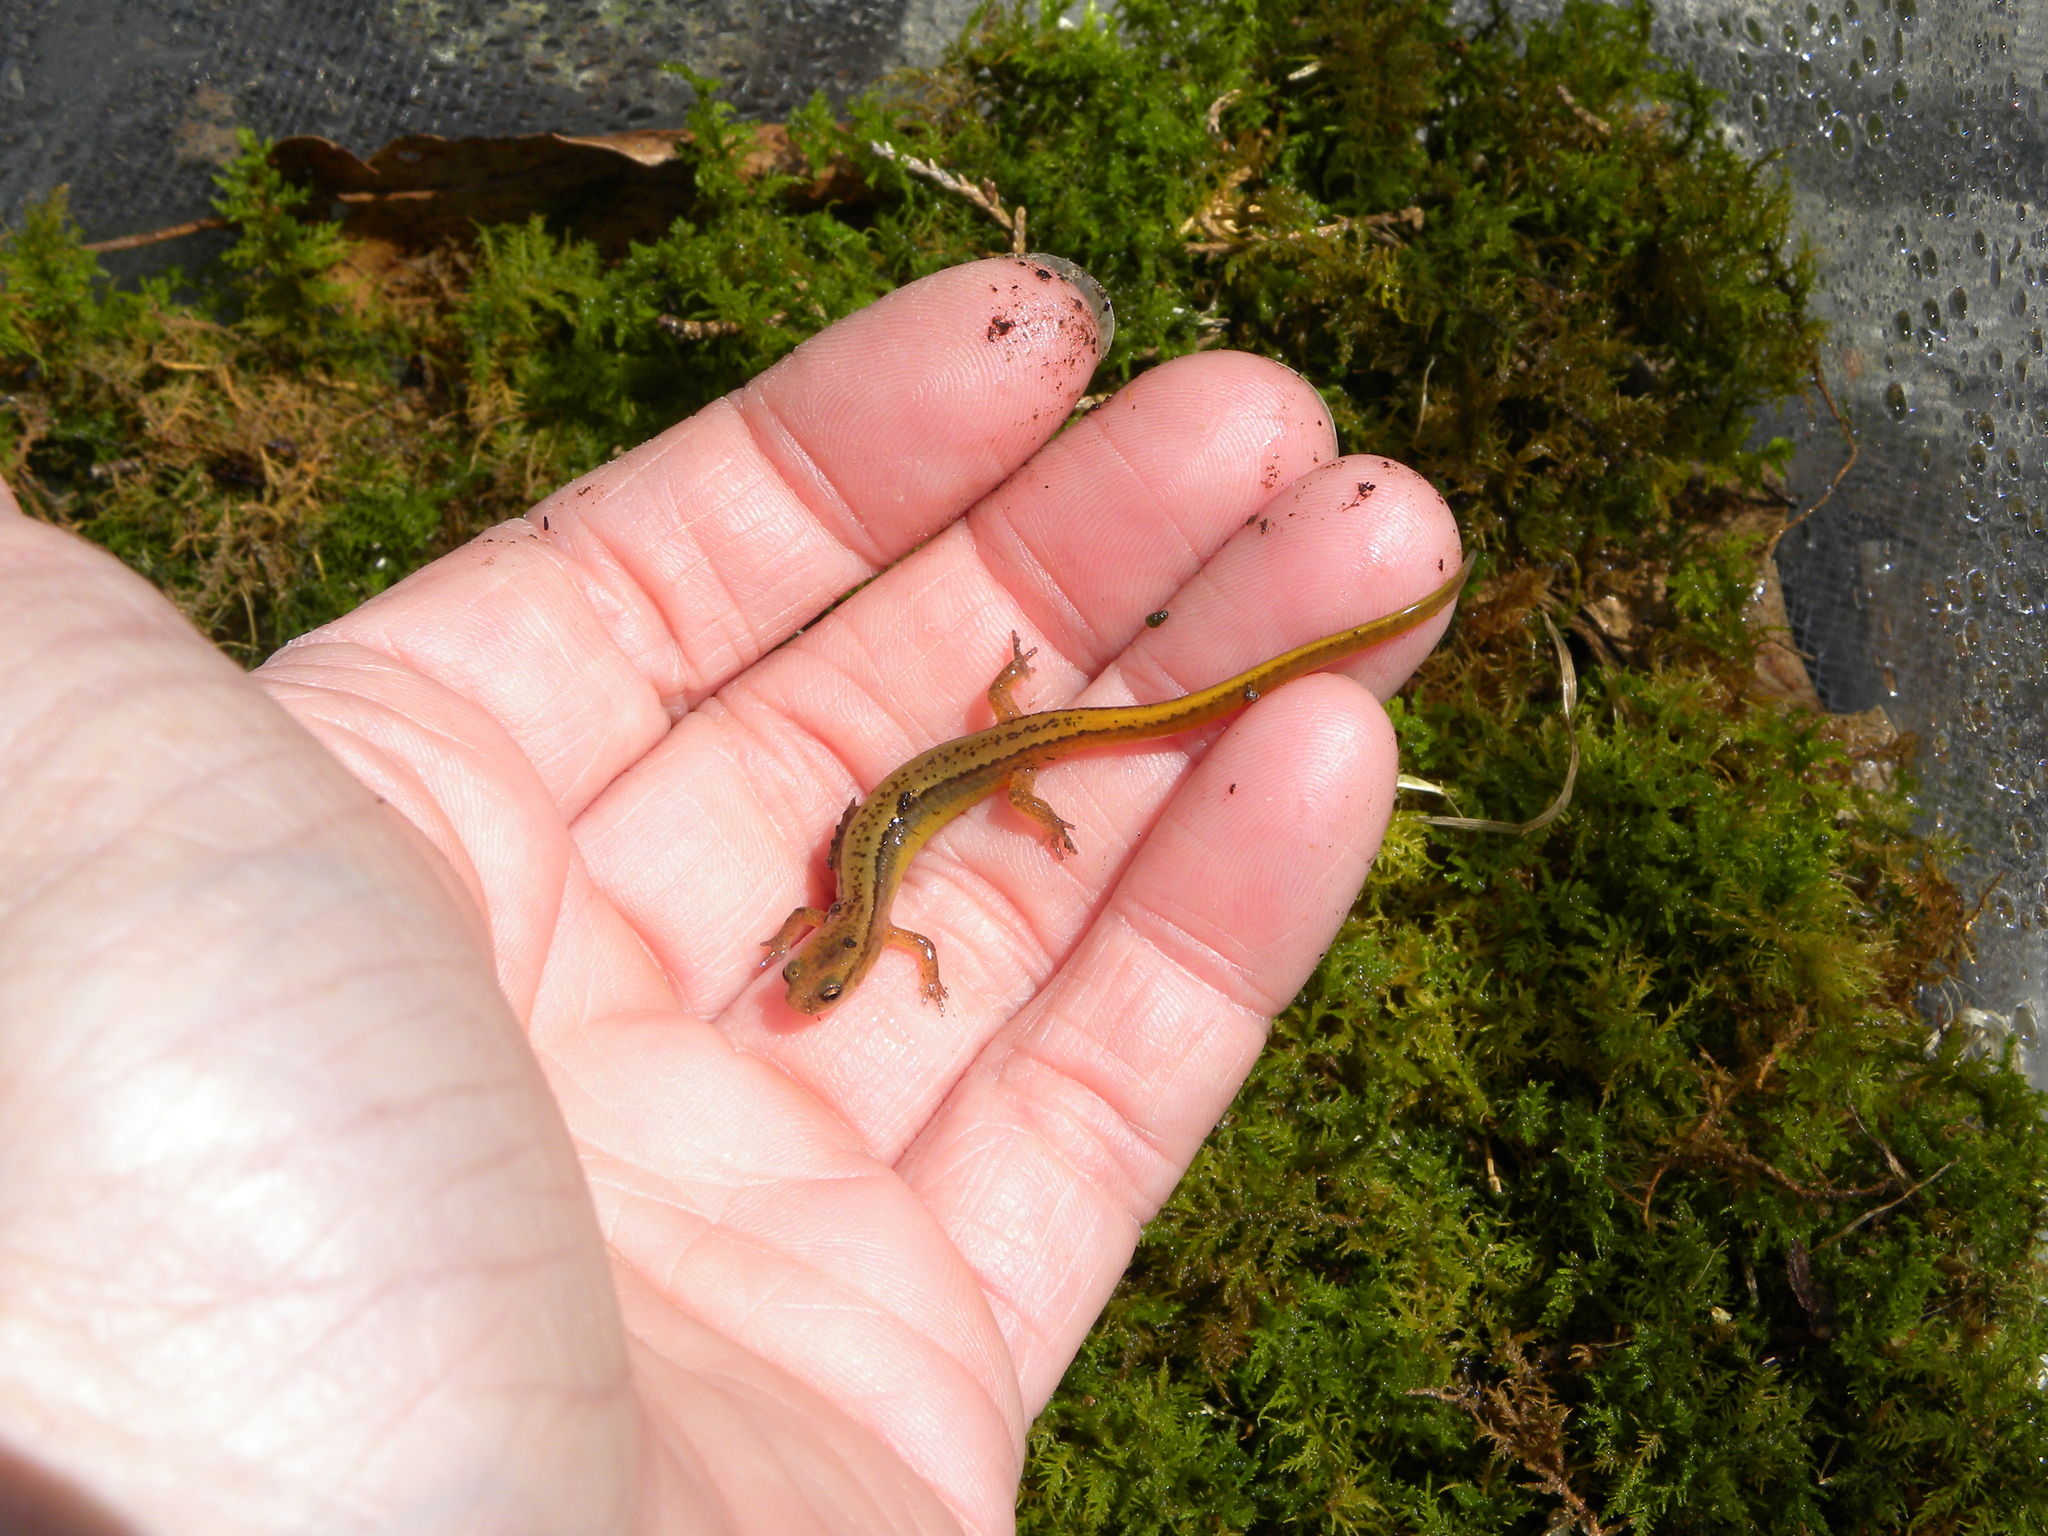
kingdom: Animalia
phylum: Chordata
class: Amphibia
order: Caudata
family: Plethodontidae
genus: Eurycea
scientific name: Eurycea cirrigera
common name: Southern two-lined salamander
